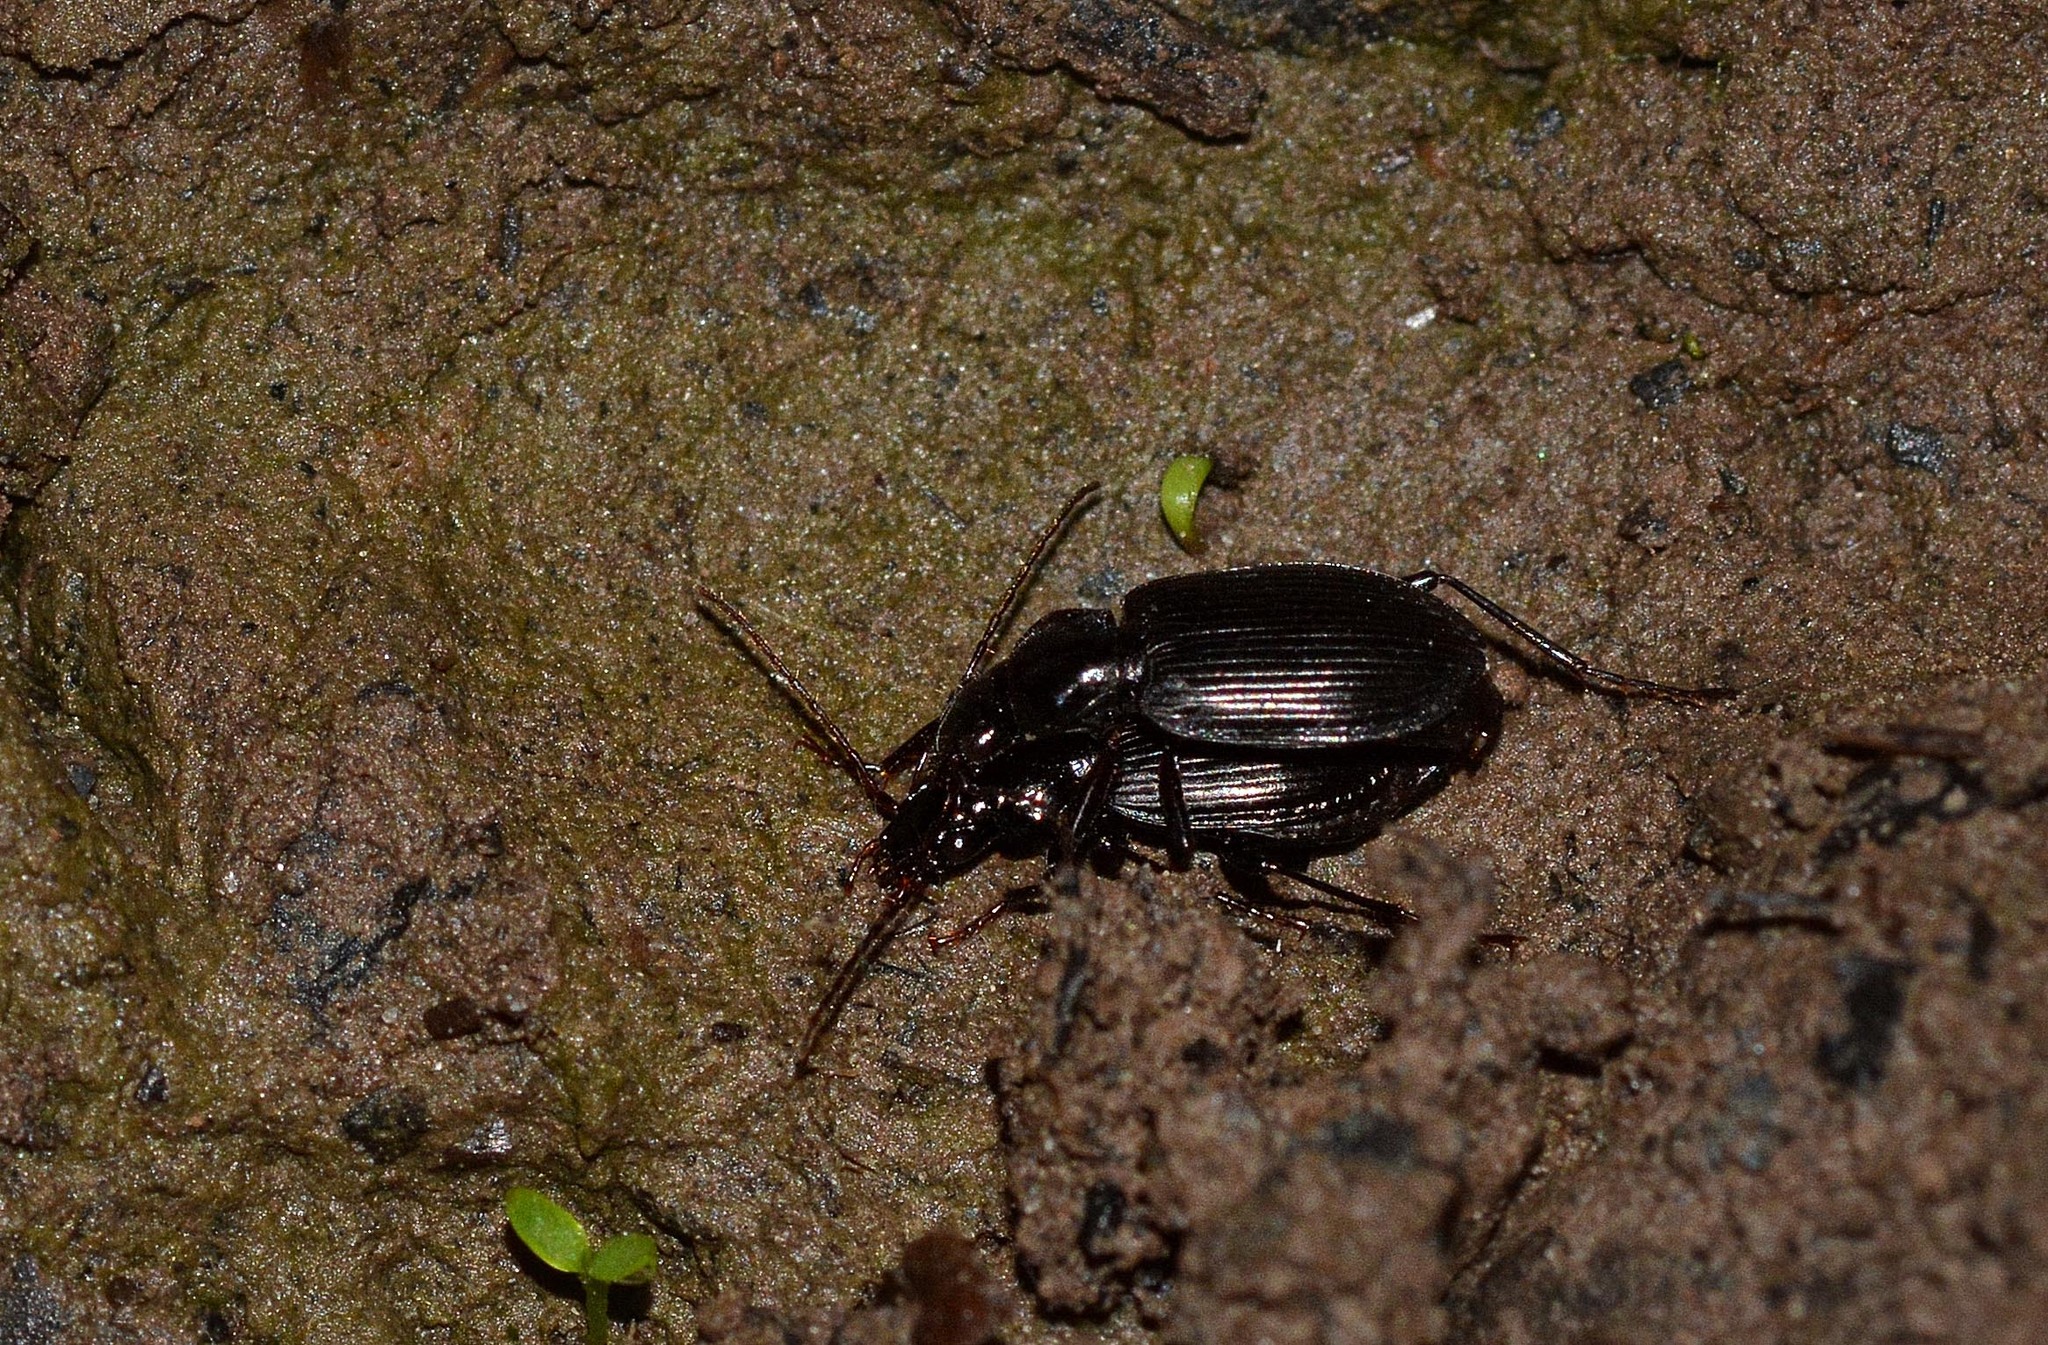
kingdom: Animalia
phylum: Arthropoda
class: Insecta
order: Coleoptera
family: Carabidae
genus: Platynus
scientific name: Platynus assimilis
